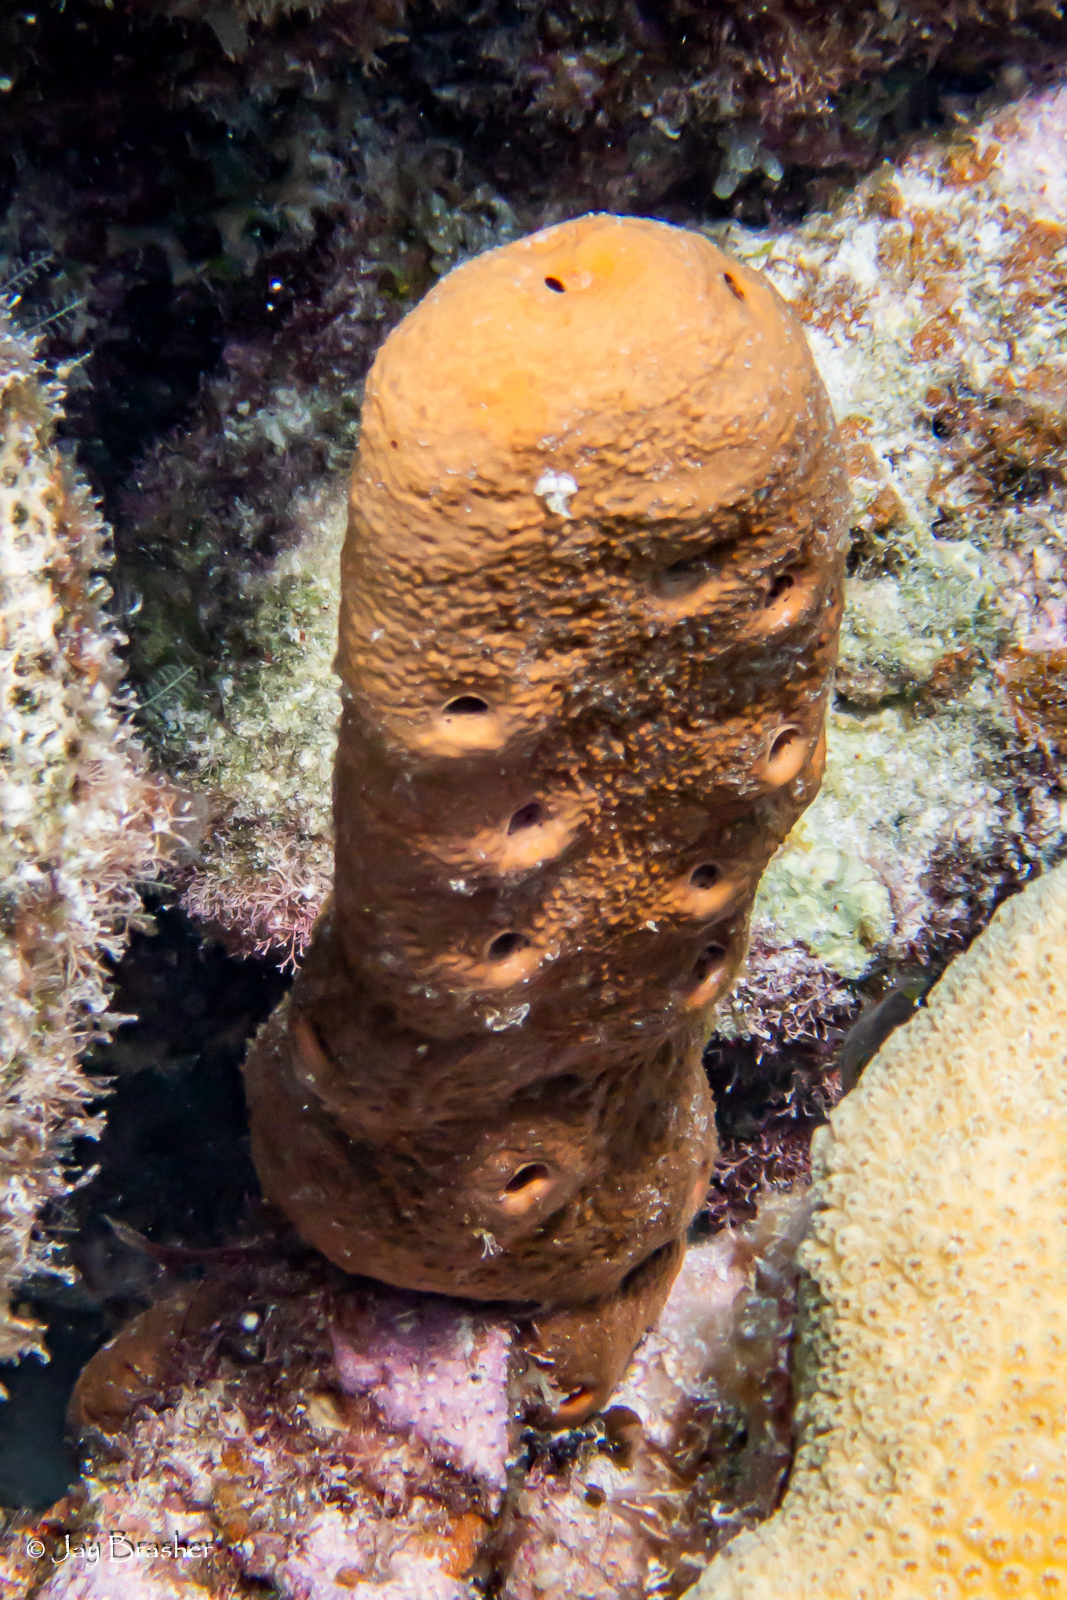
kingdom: Animalia
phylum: Porifera
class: Demospongiae
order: Agelasida
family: Agelasidae
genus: Agelas
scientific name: Agelas conifera
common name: Brown tube sponge
